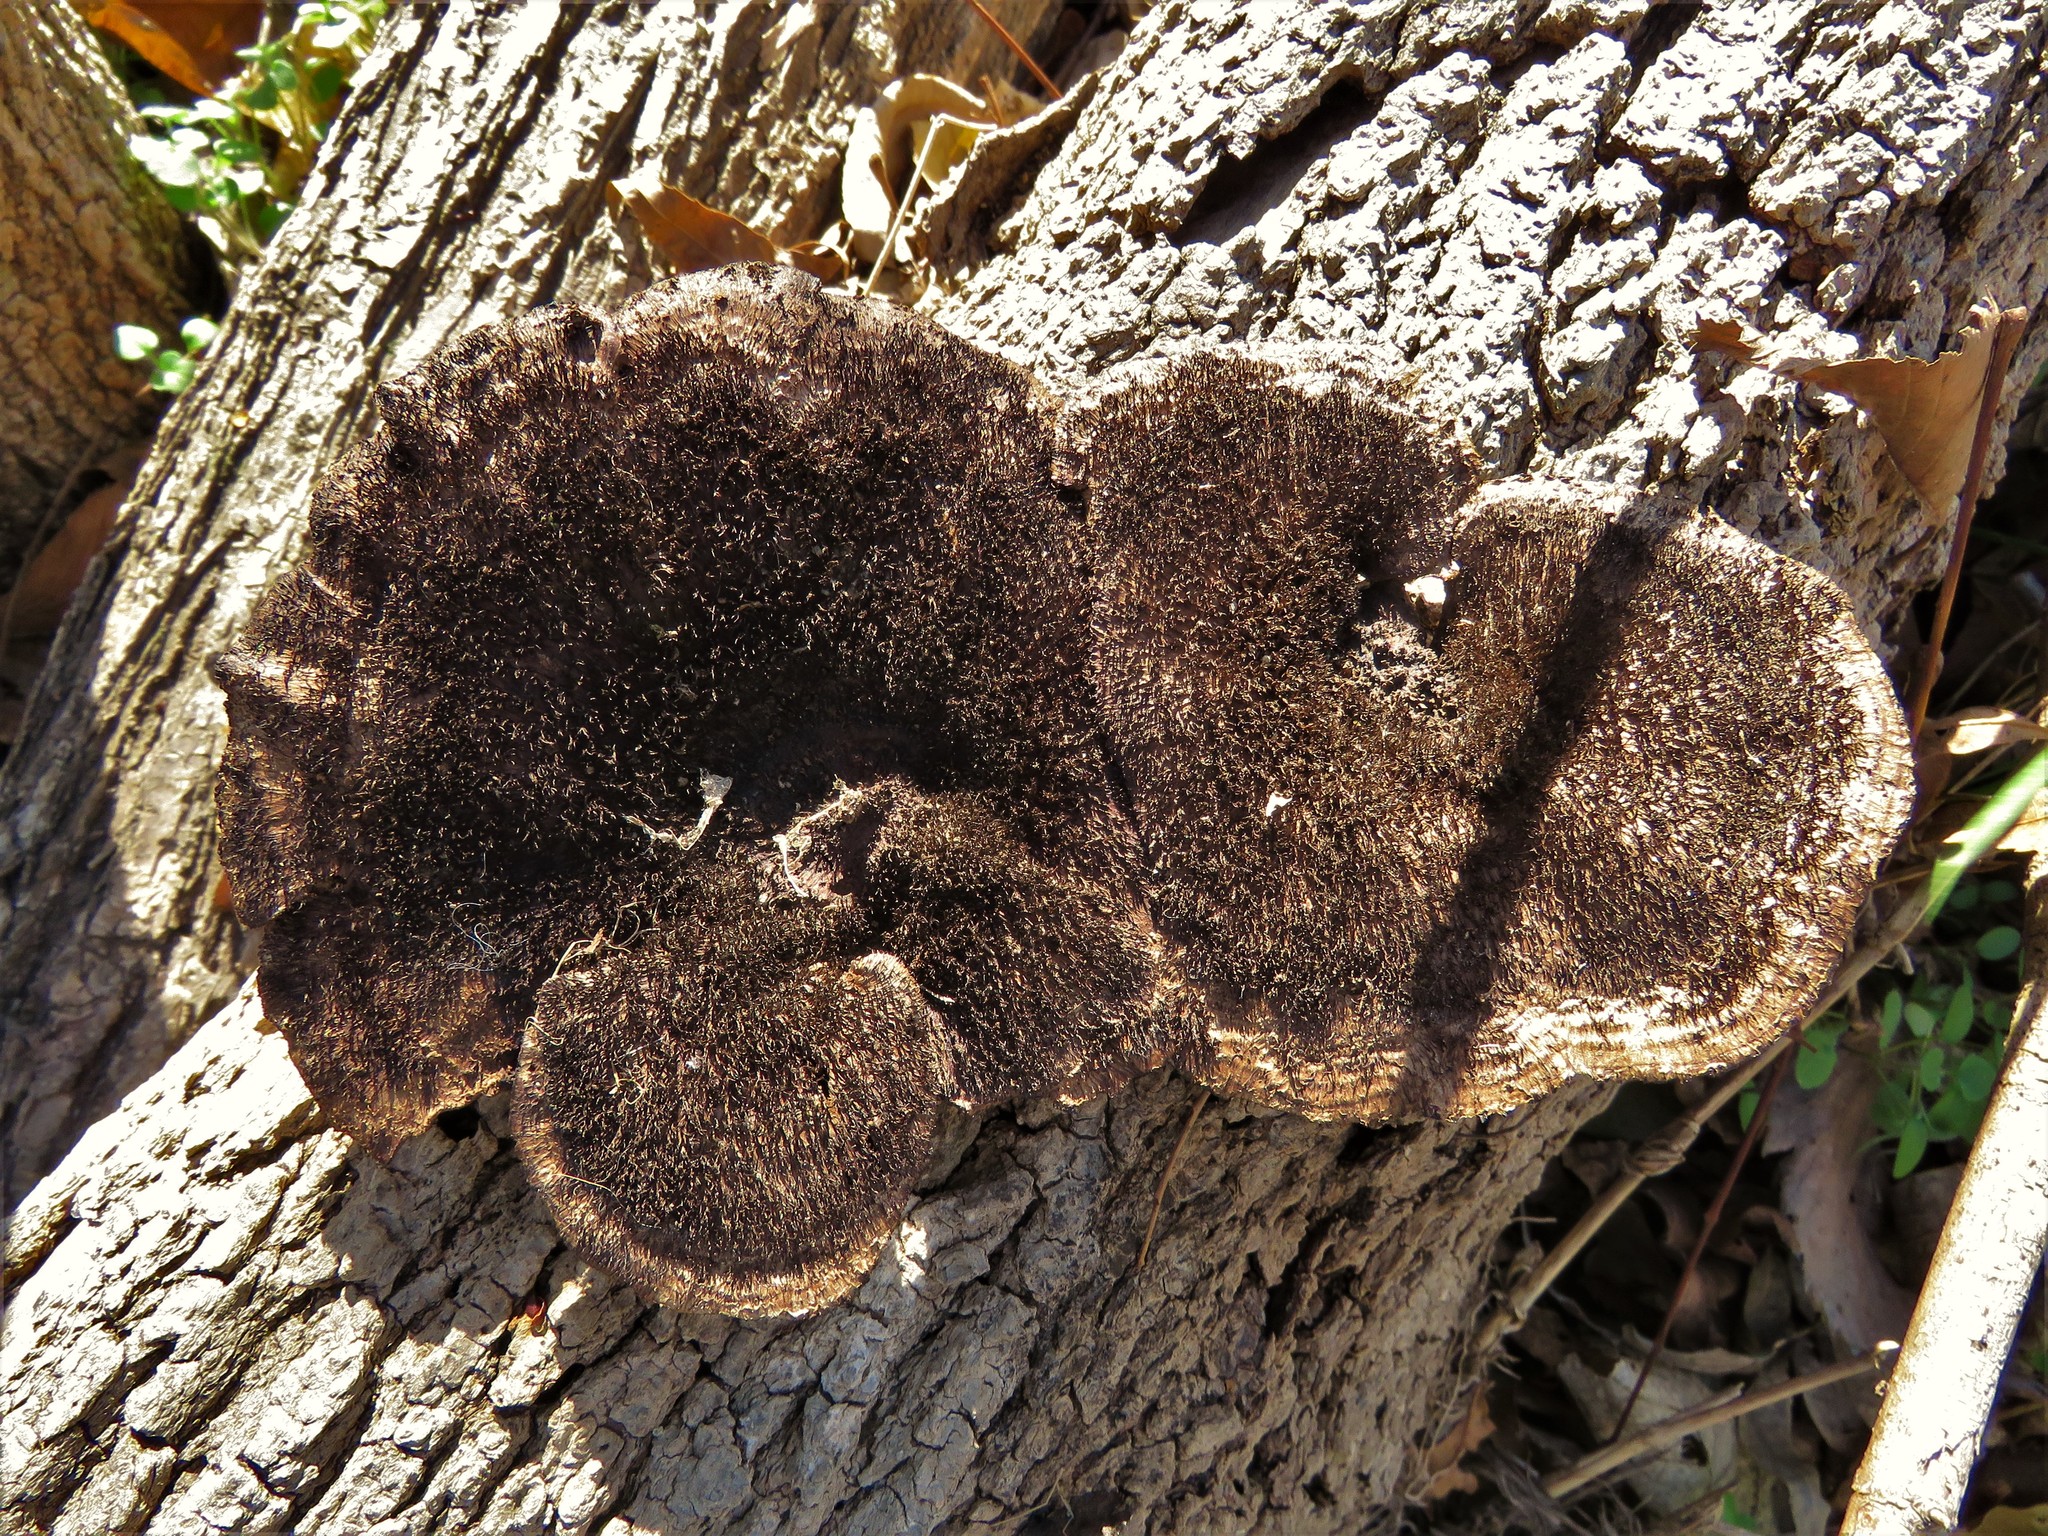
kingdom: Fungi
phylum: Basidiomycota
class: Agaricomycetes
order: Polyporales
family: Cerrenaceae
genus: Cerrena
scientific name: Cerrena hydnoides
